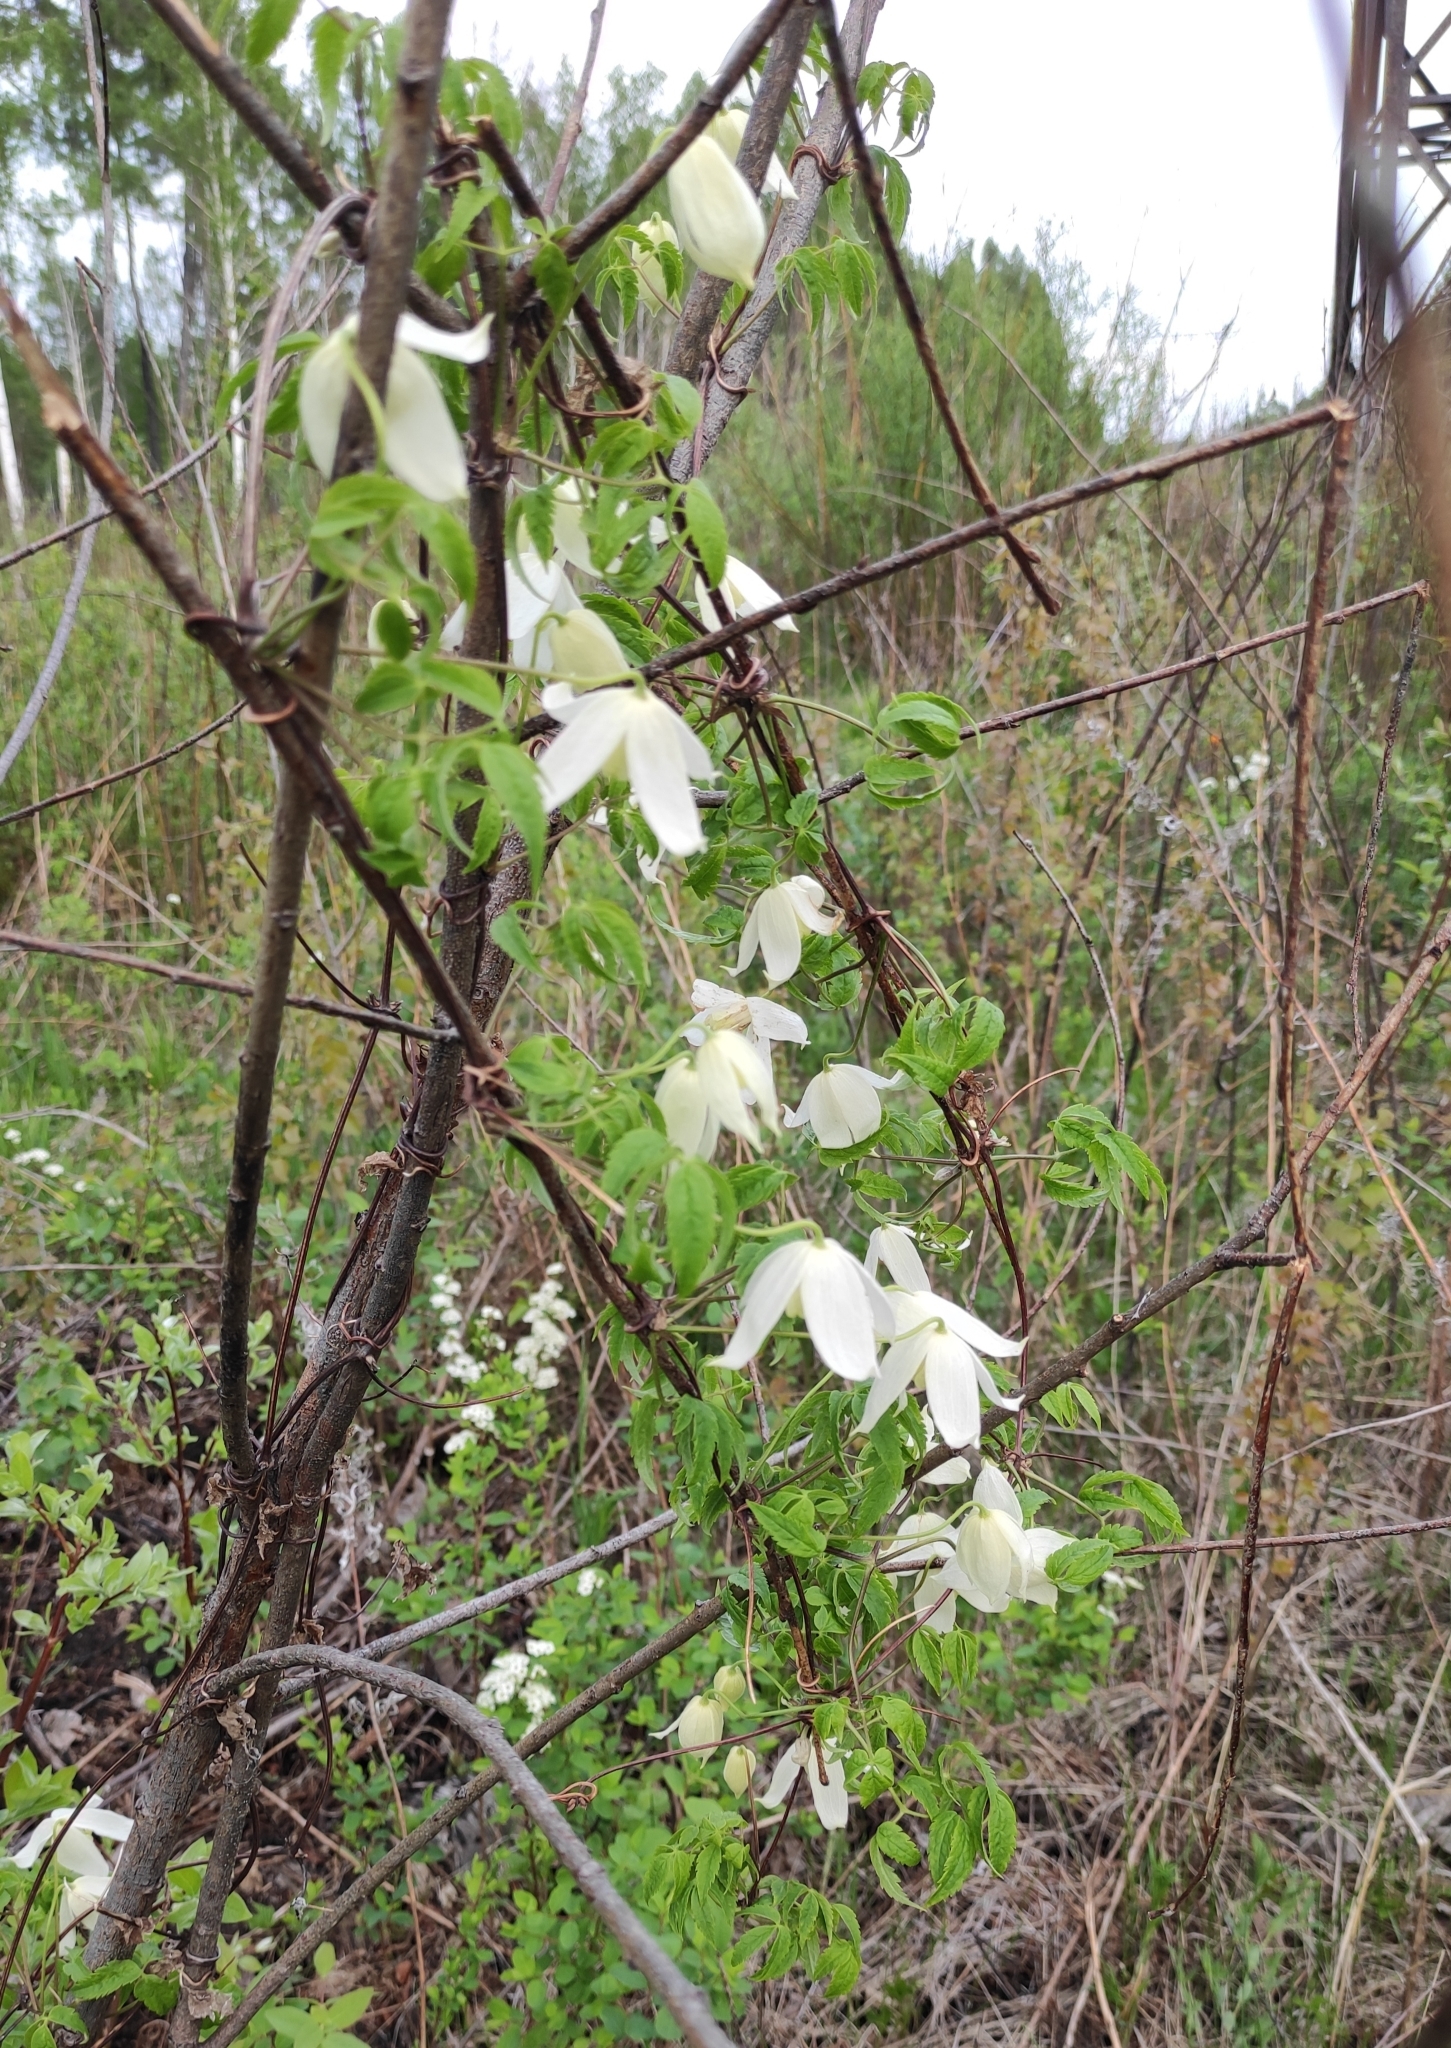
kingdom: Plantae
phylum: Tracheophyta
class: Magnoliopsida
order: Ranunculales
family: Ranunculaceae
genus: Clematis
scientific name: Clematis sibirica
